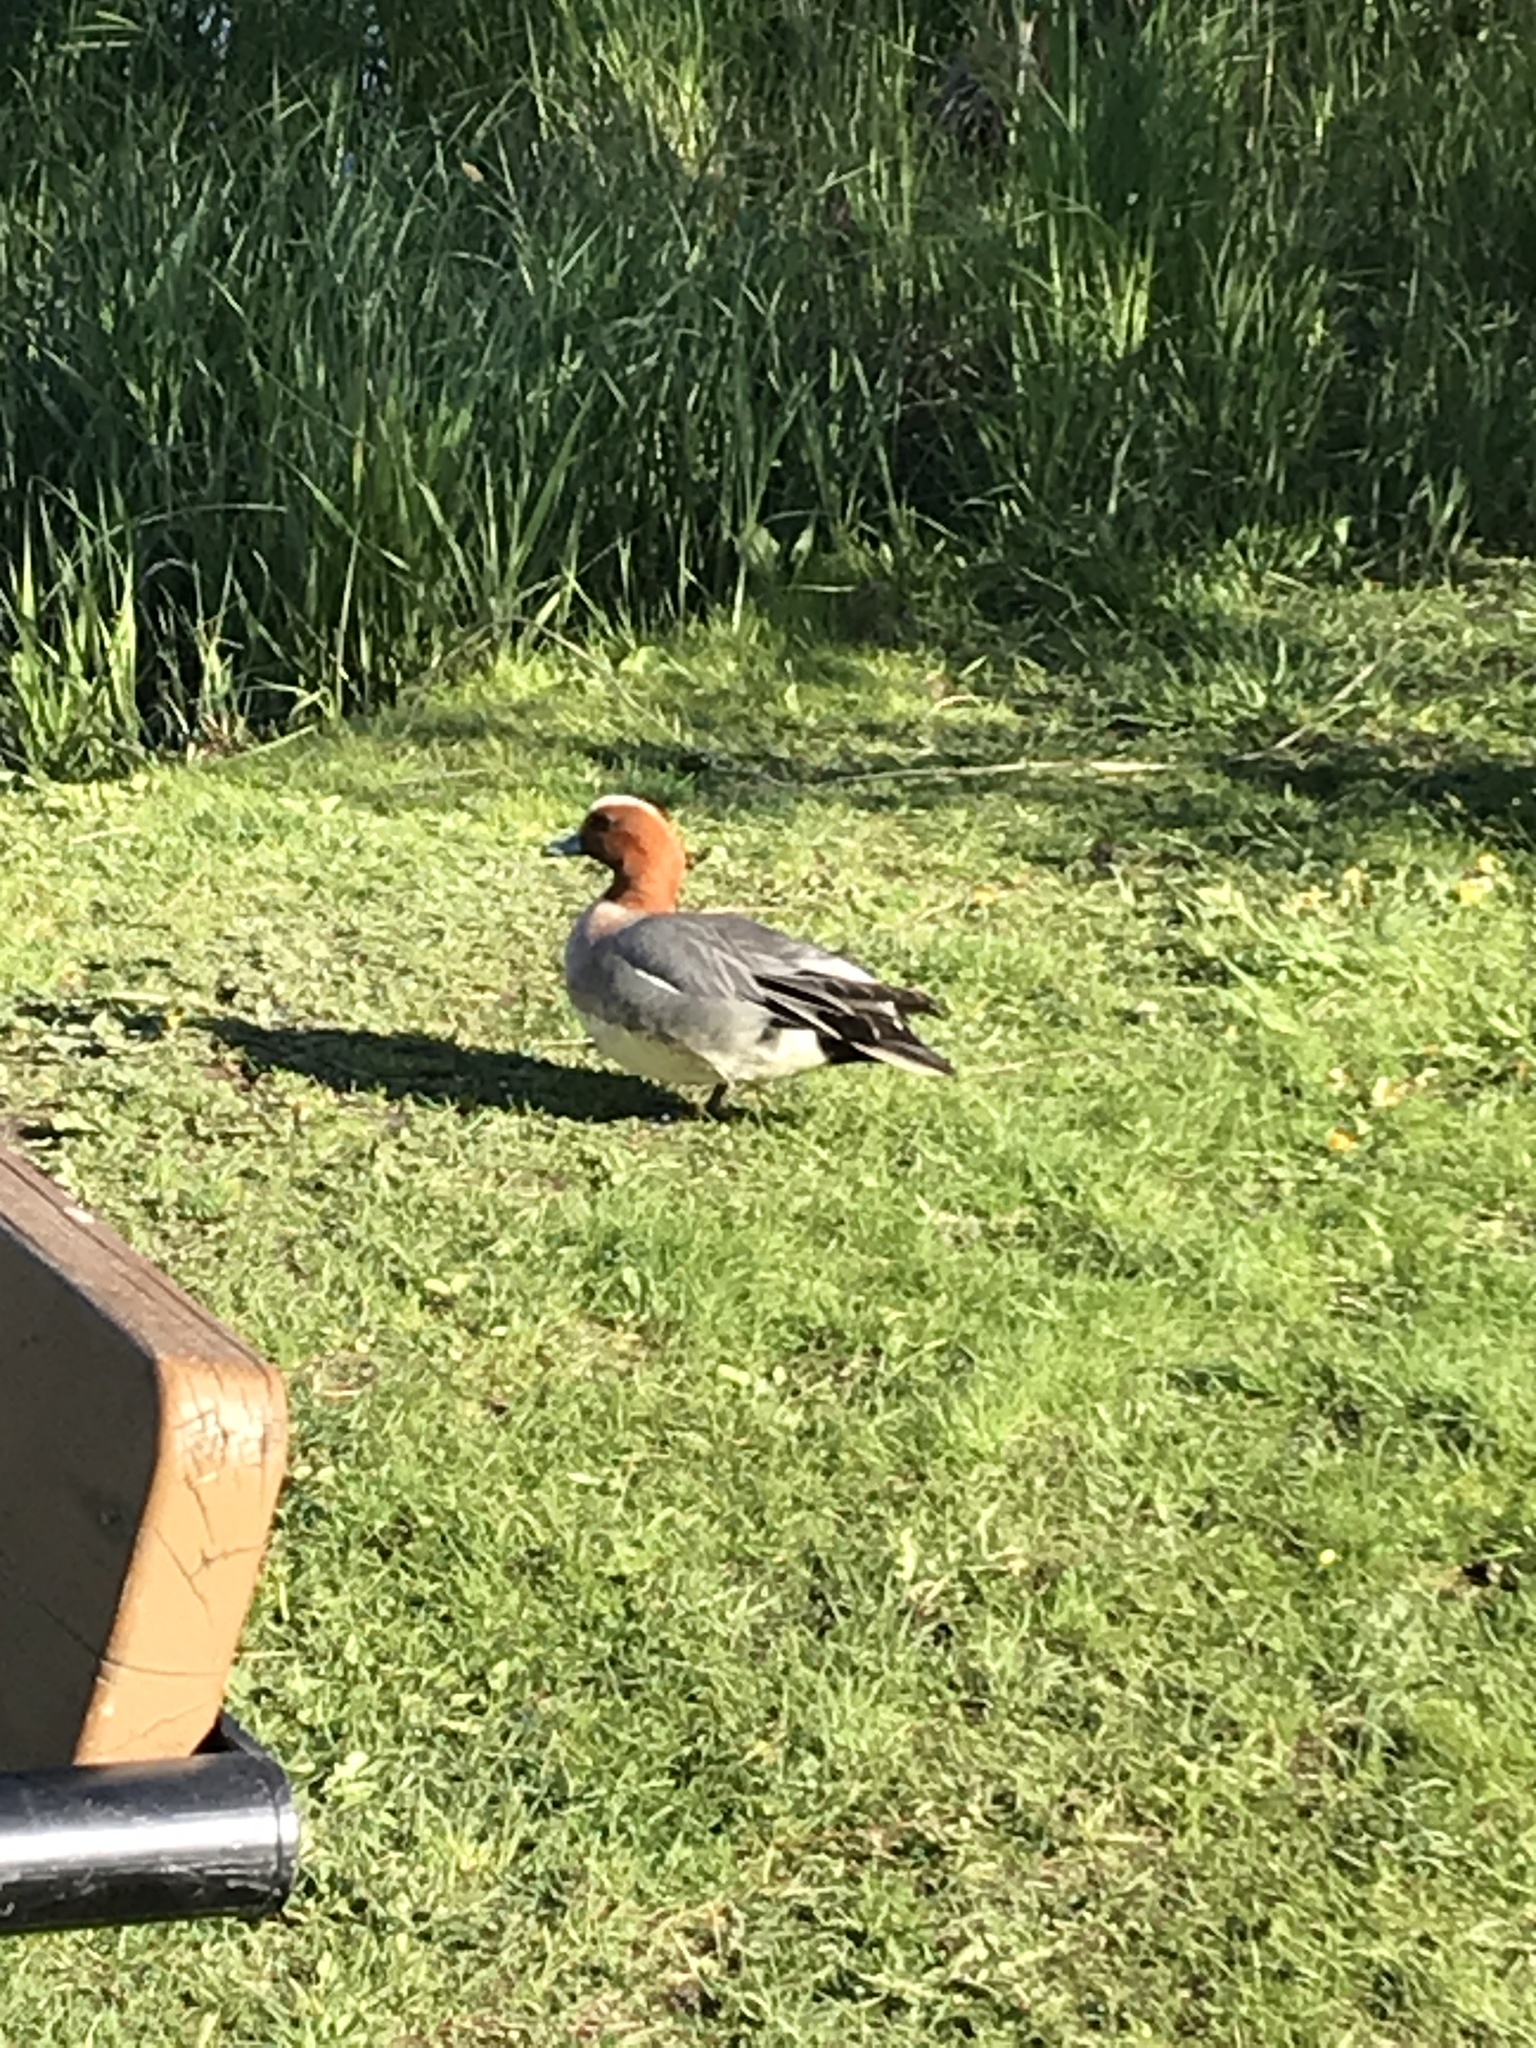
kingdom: Animalia
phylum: Chordata
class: Aves
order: Anseriformes
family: Anatidae
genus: Mareca
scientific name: Mareca penelope
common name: Eurasian wigeon
